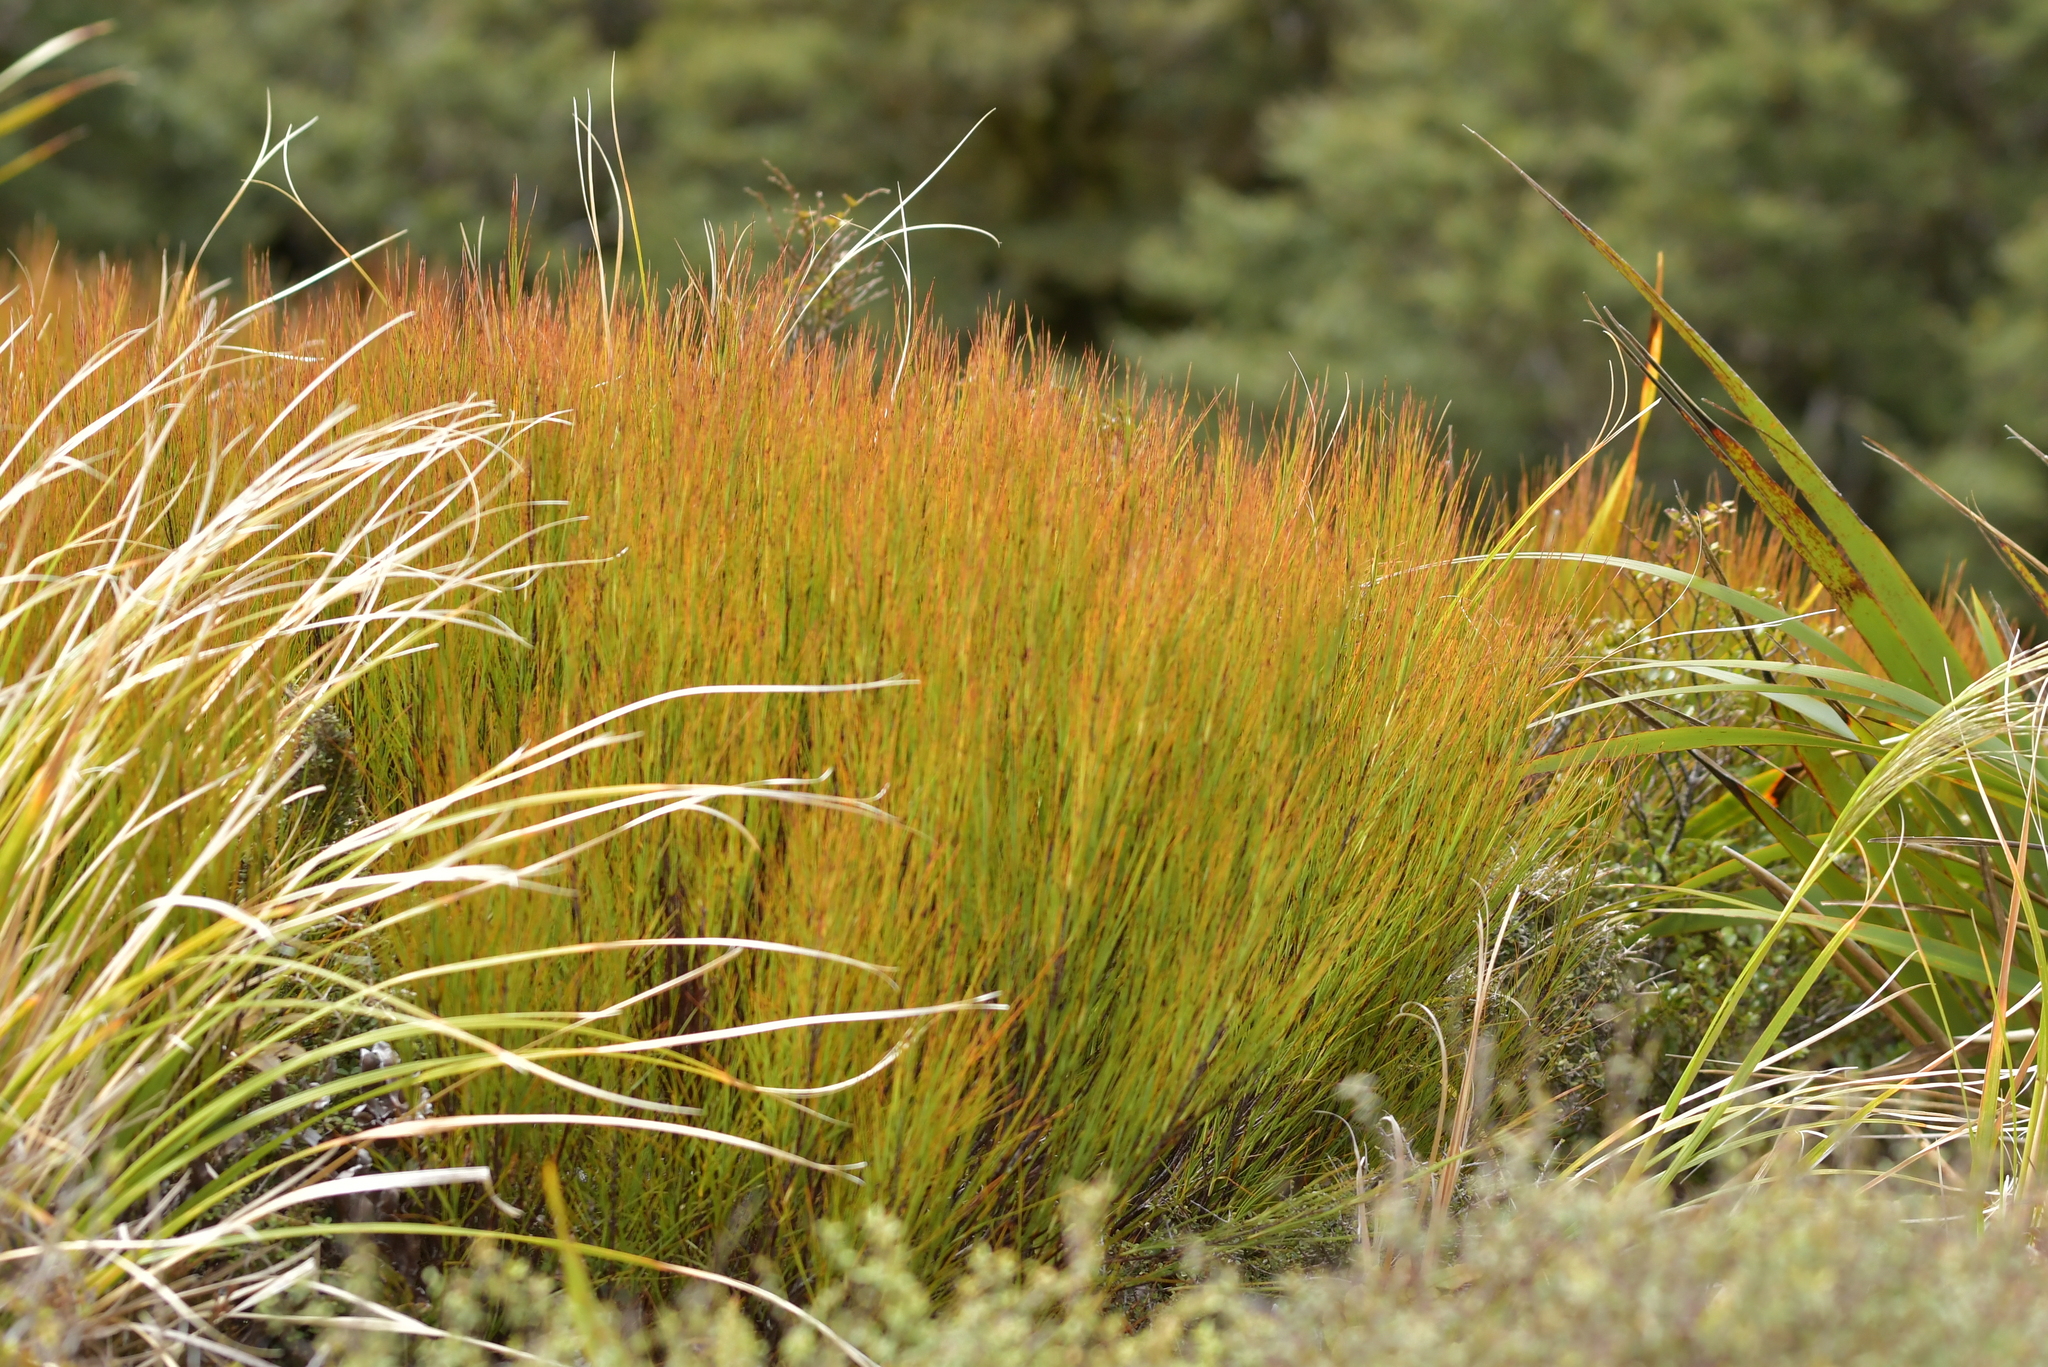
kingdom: Plantae
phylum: Tracheophyta
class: Magnoliopsida
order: Ericales
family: Ericaceae
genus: Dracophyllum
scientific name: Dracophyllum filifolium
